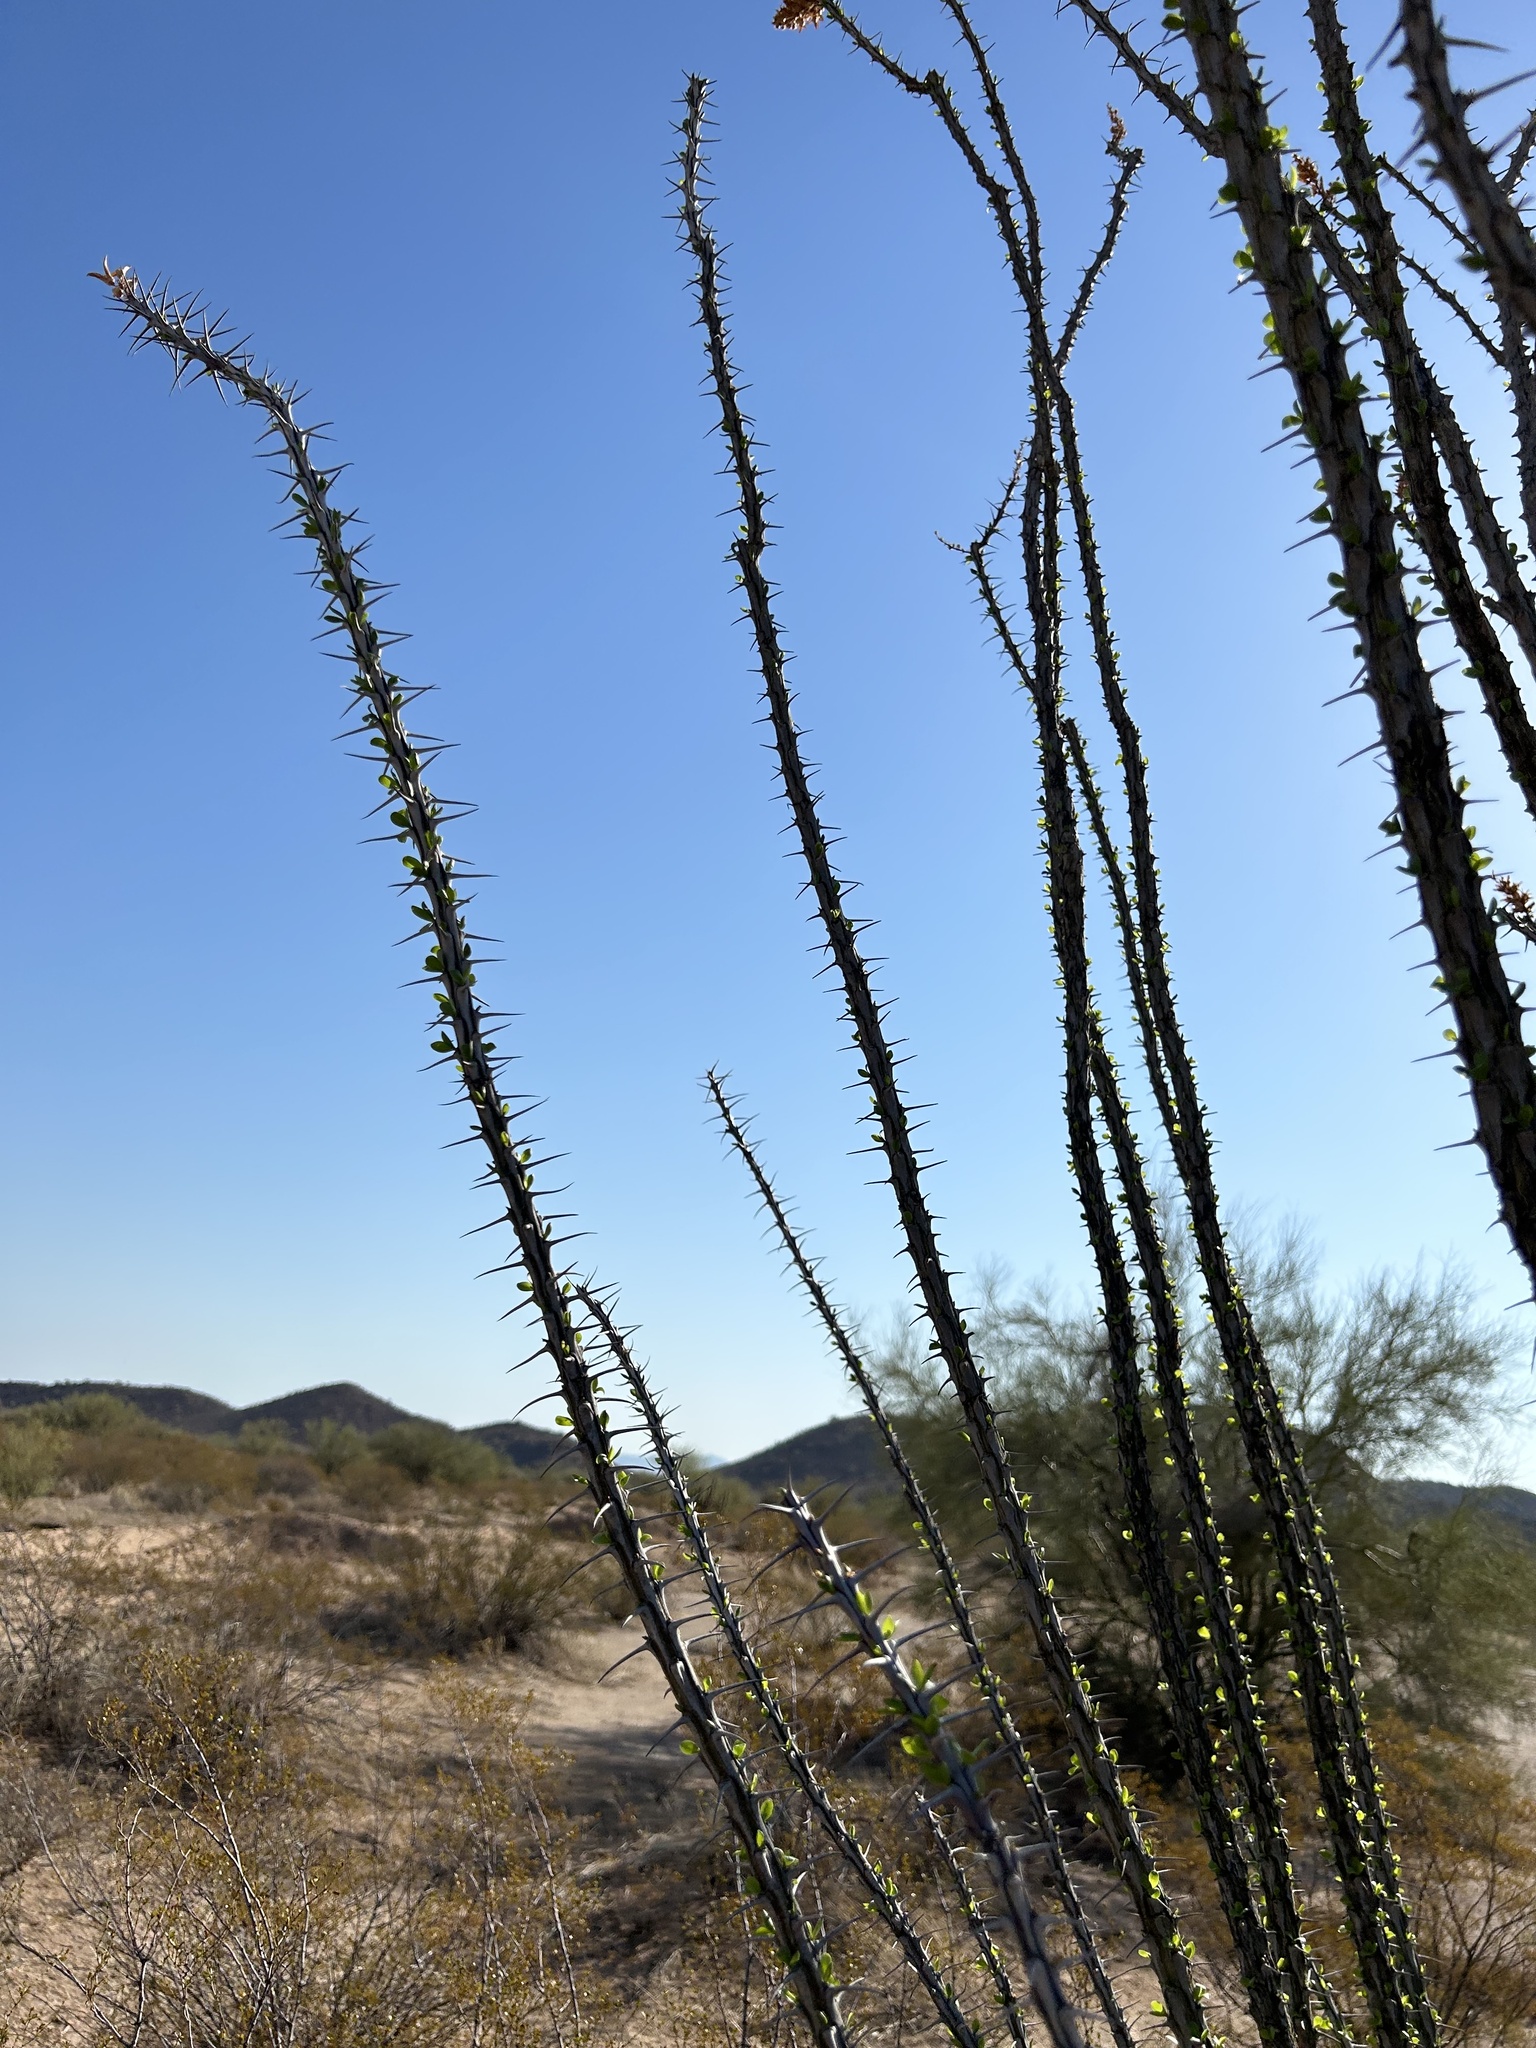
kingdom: Plantae
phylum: Tracheophyta
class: Magnoliopsida
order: Ericales
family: Fouquieriaceae
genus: Fouquieria
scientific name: Fouquieria splendens
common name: Vine-cactus
